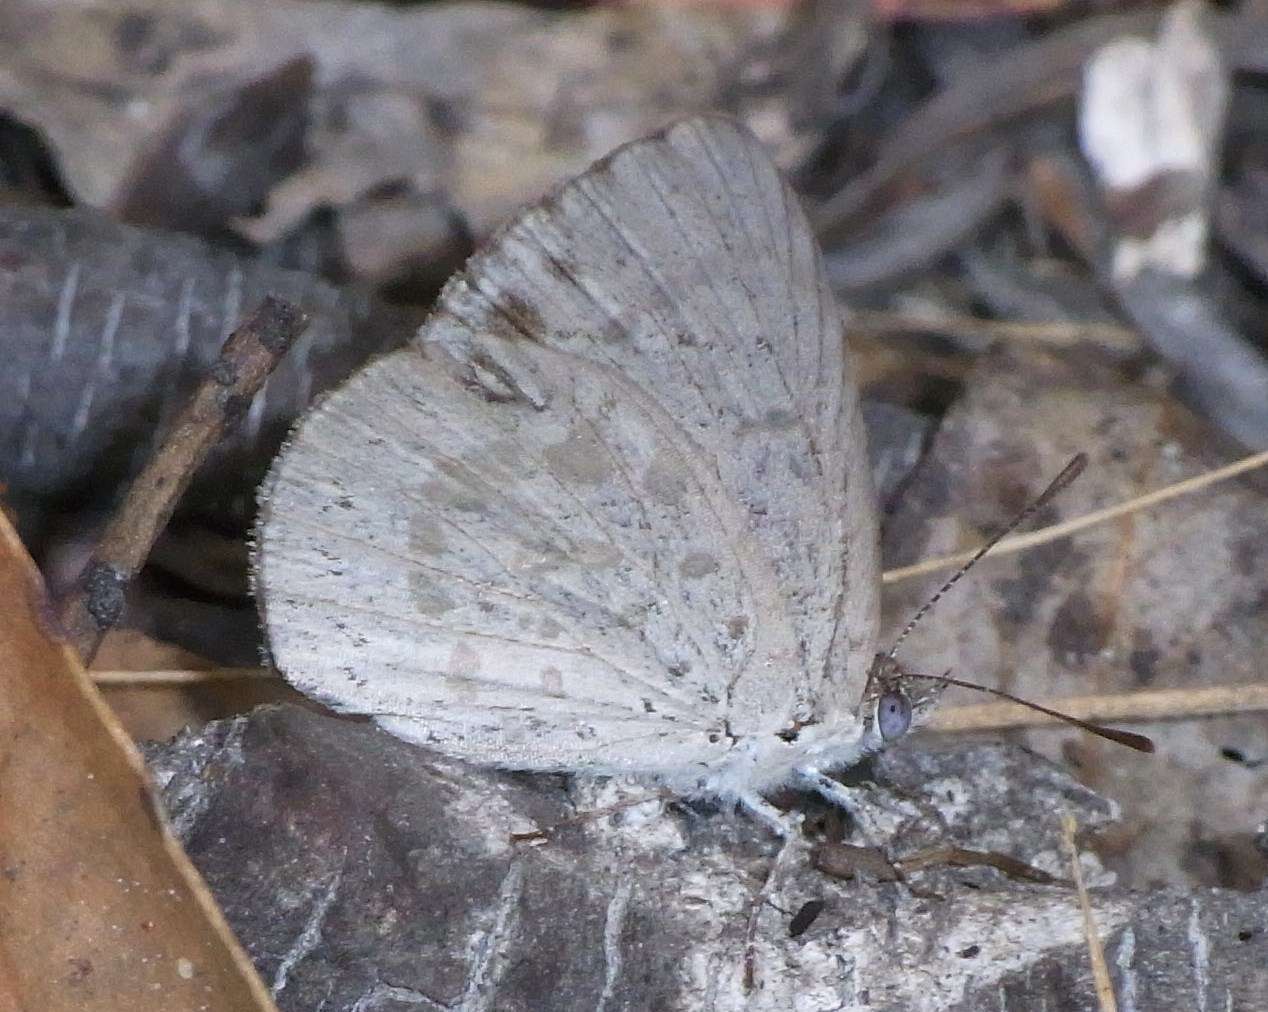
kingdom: Animalia
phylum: Arthropoda
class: Insecta
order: Lepidoptera
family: Lycaenidae
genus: Candalides
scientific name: Candalides
